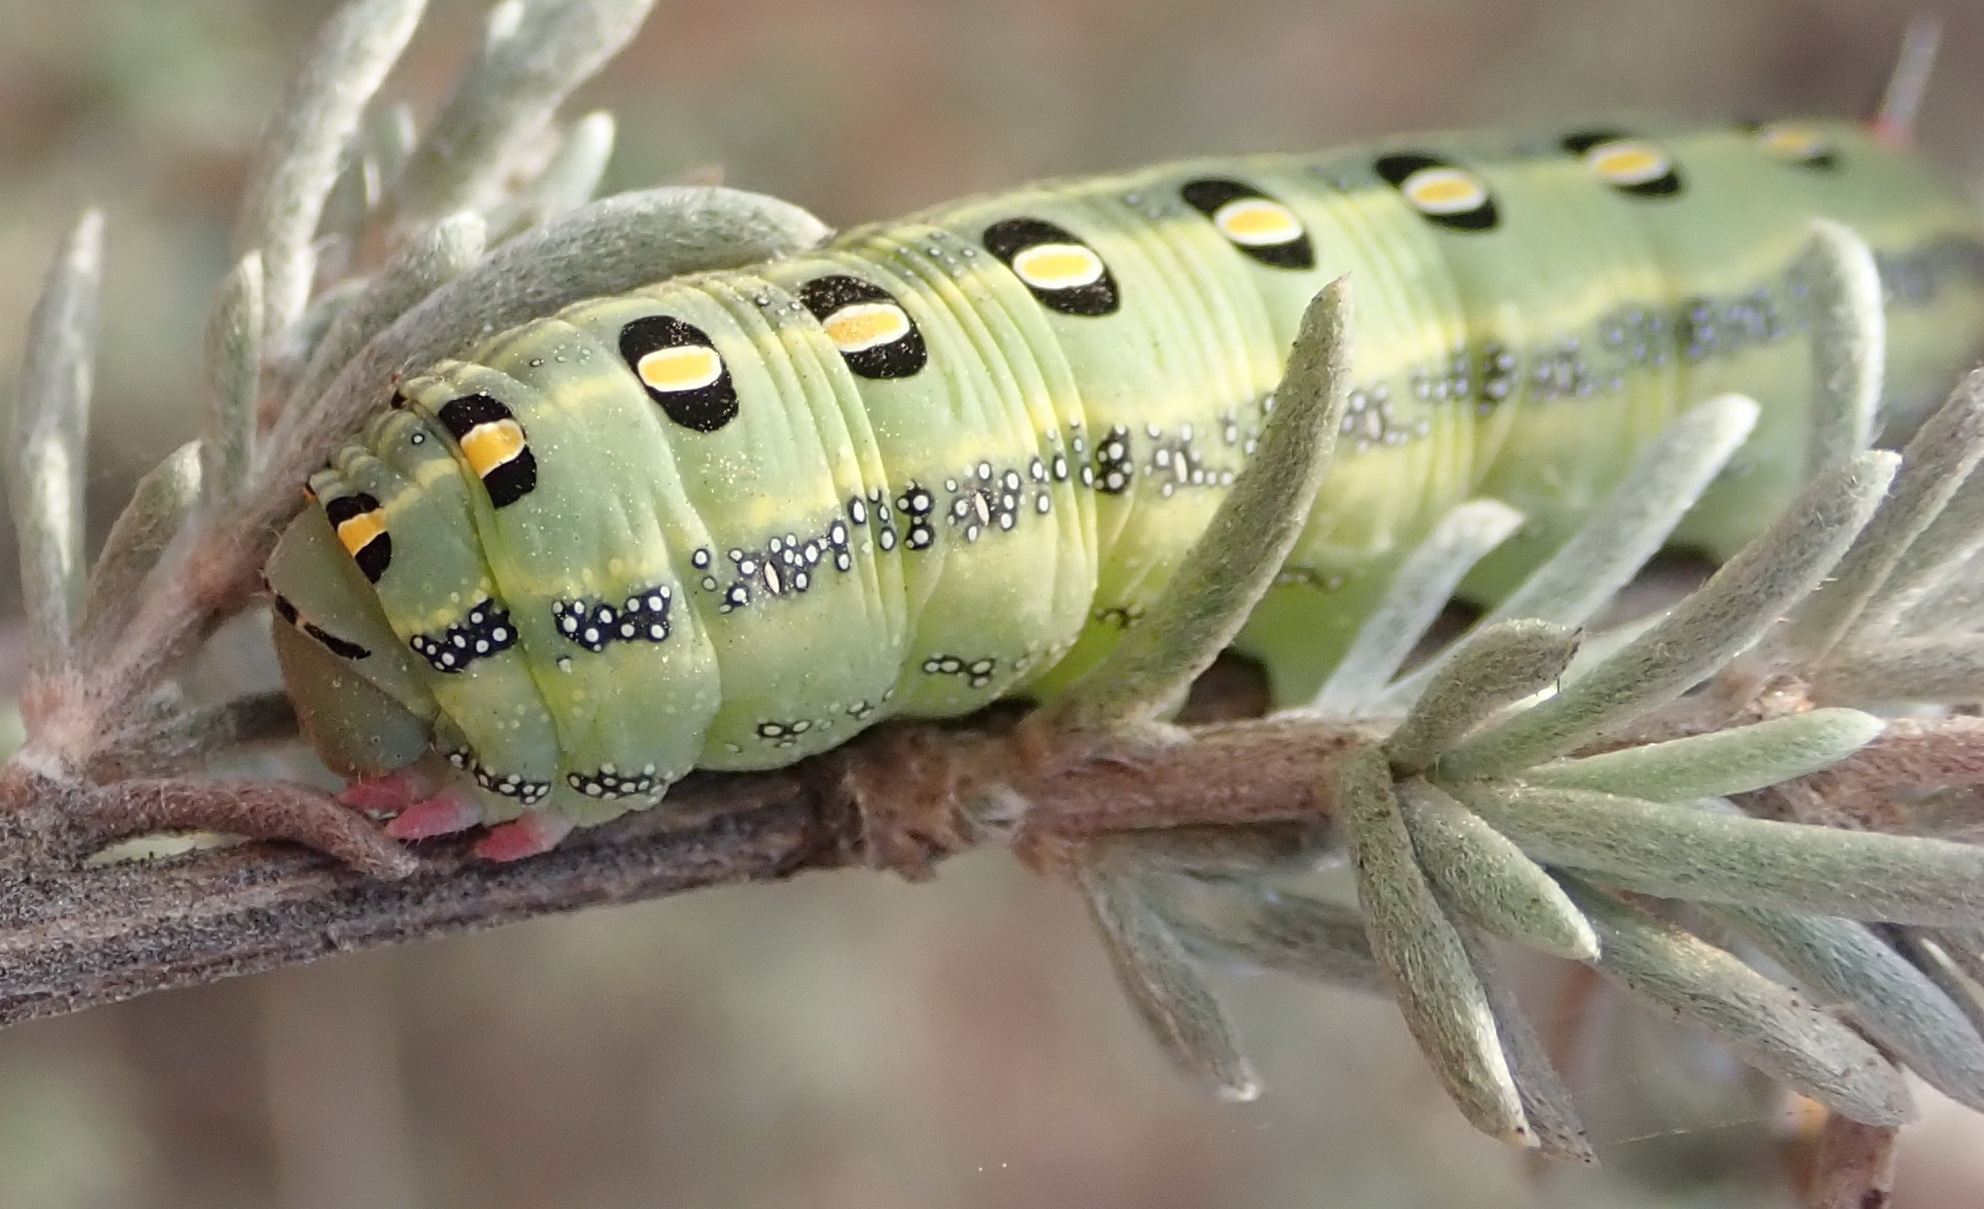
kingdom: Animalia
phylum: Arthropoda
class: Insecta
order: Lepidoptera
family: Sphingidae
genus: Rhodafra
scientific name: Rhodafra opheltes
